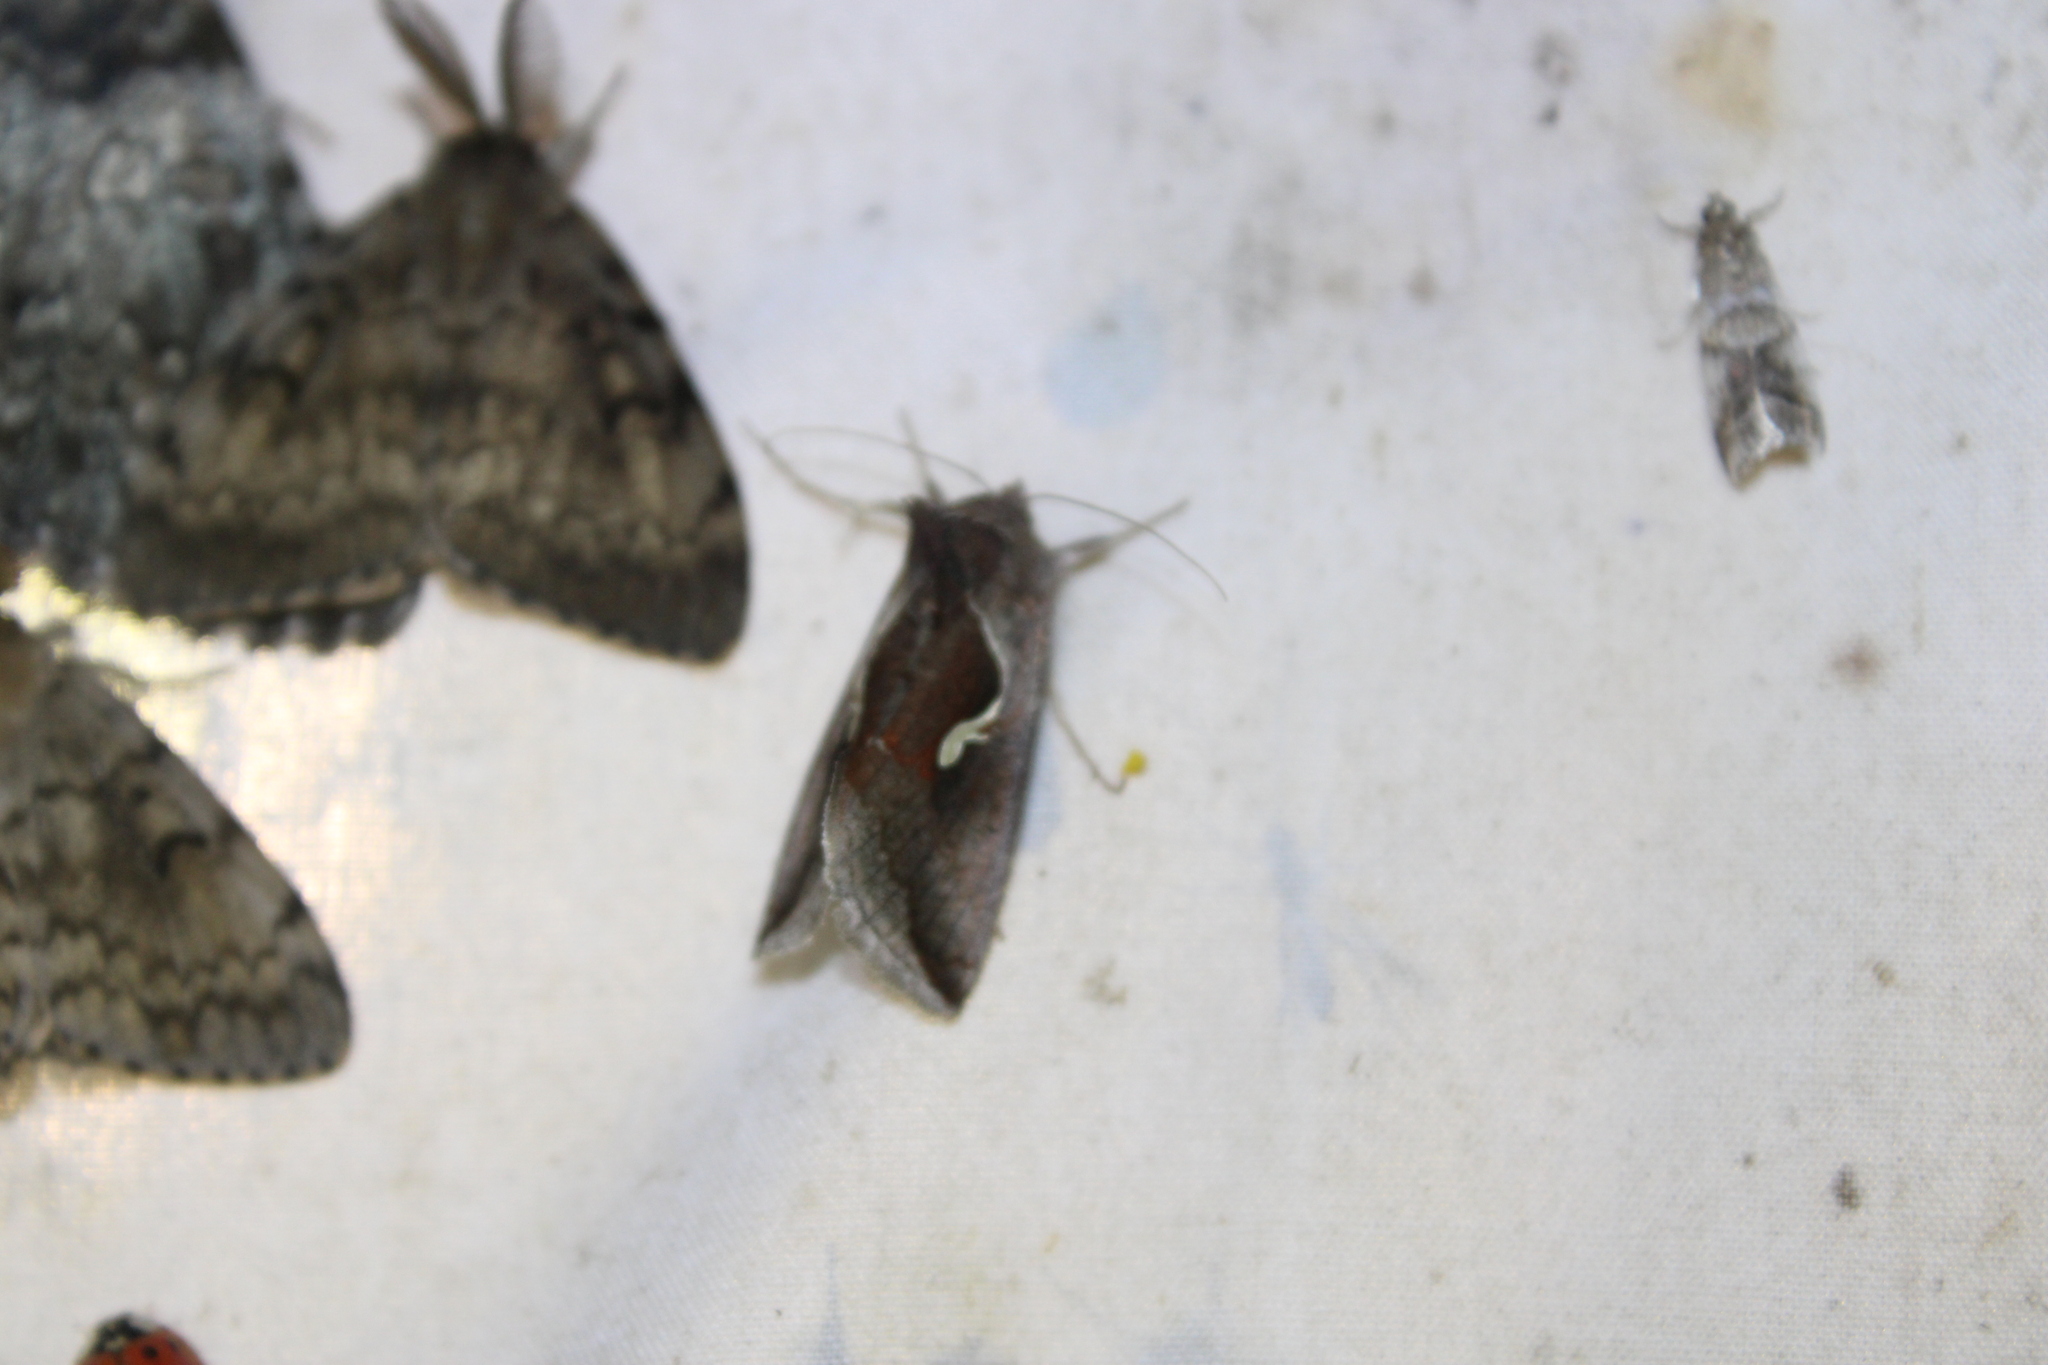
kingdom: Animalia
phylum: Arthropoda
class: Insecta
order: Lepidoptera
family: Noctuidae
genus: Anagrapha
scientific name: Anagrapha falcifera
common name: Celery looper
